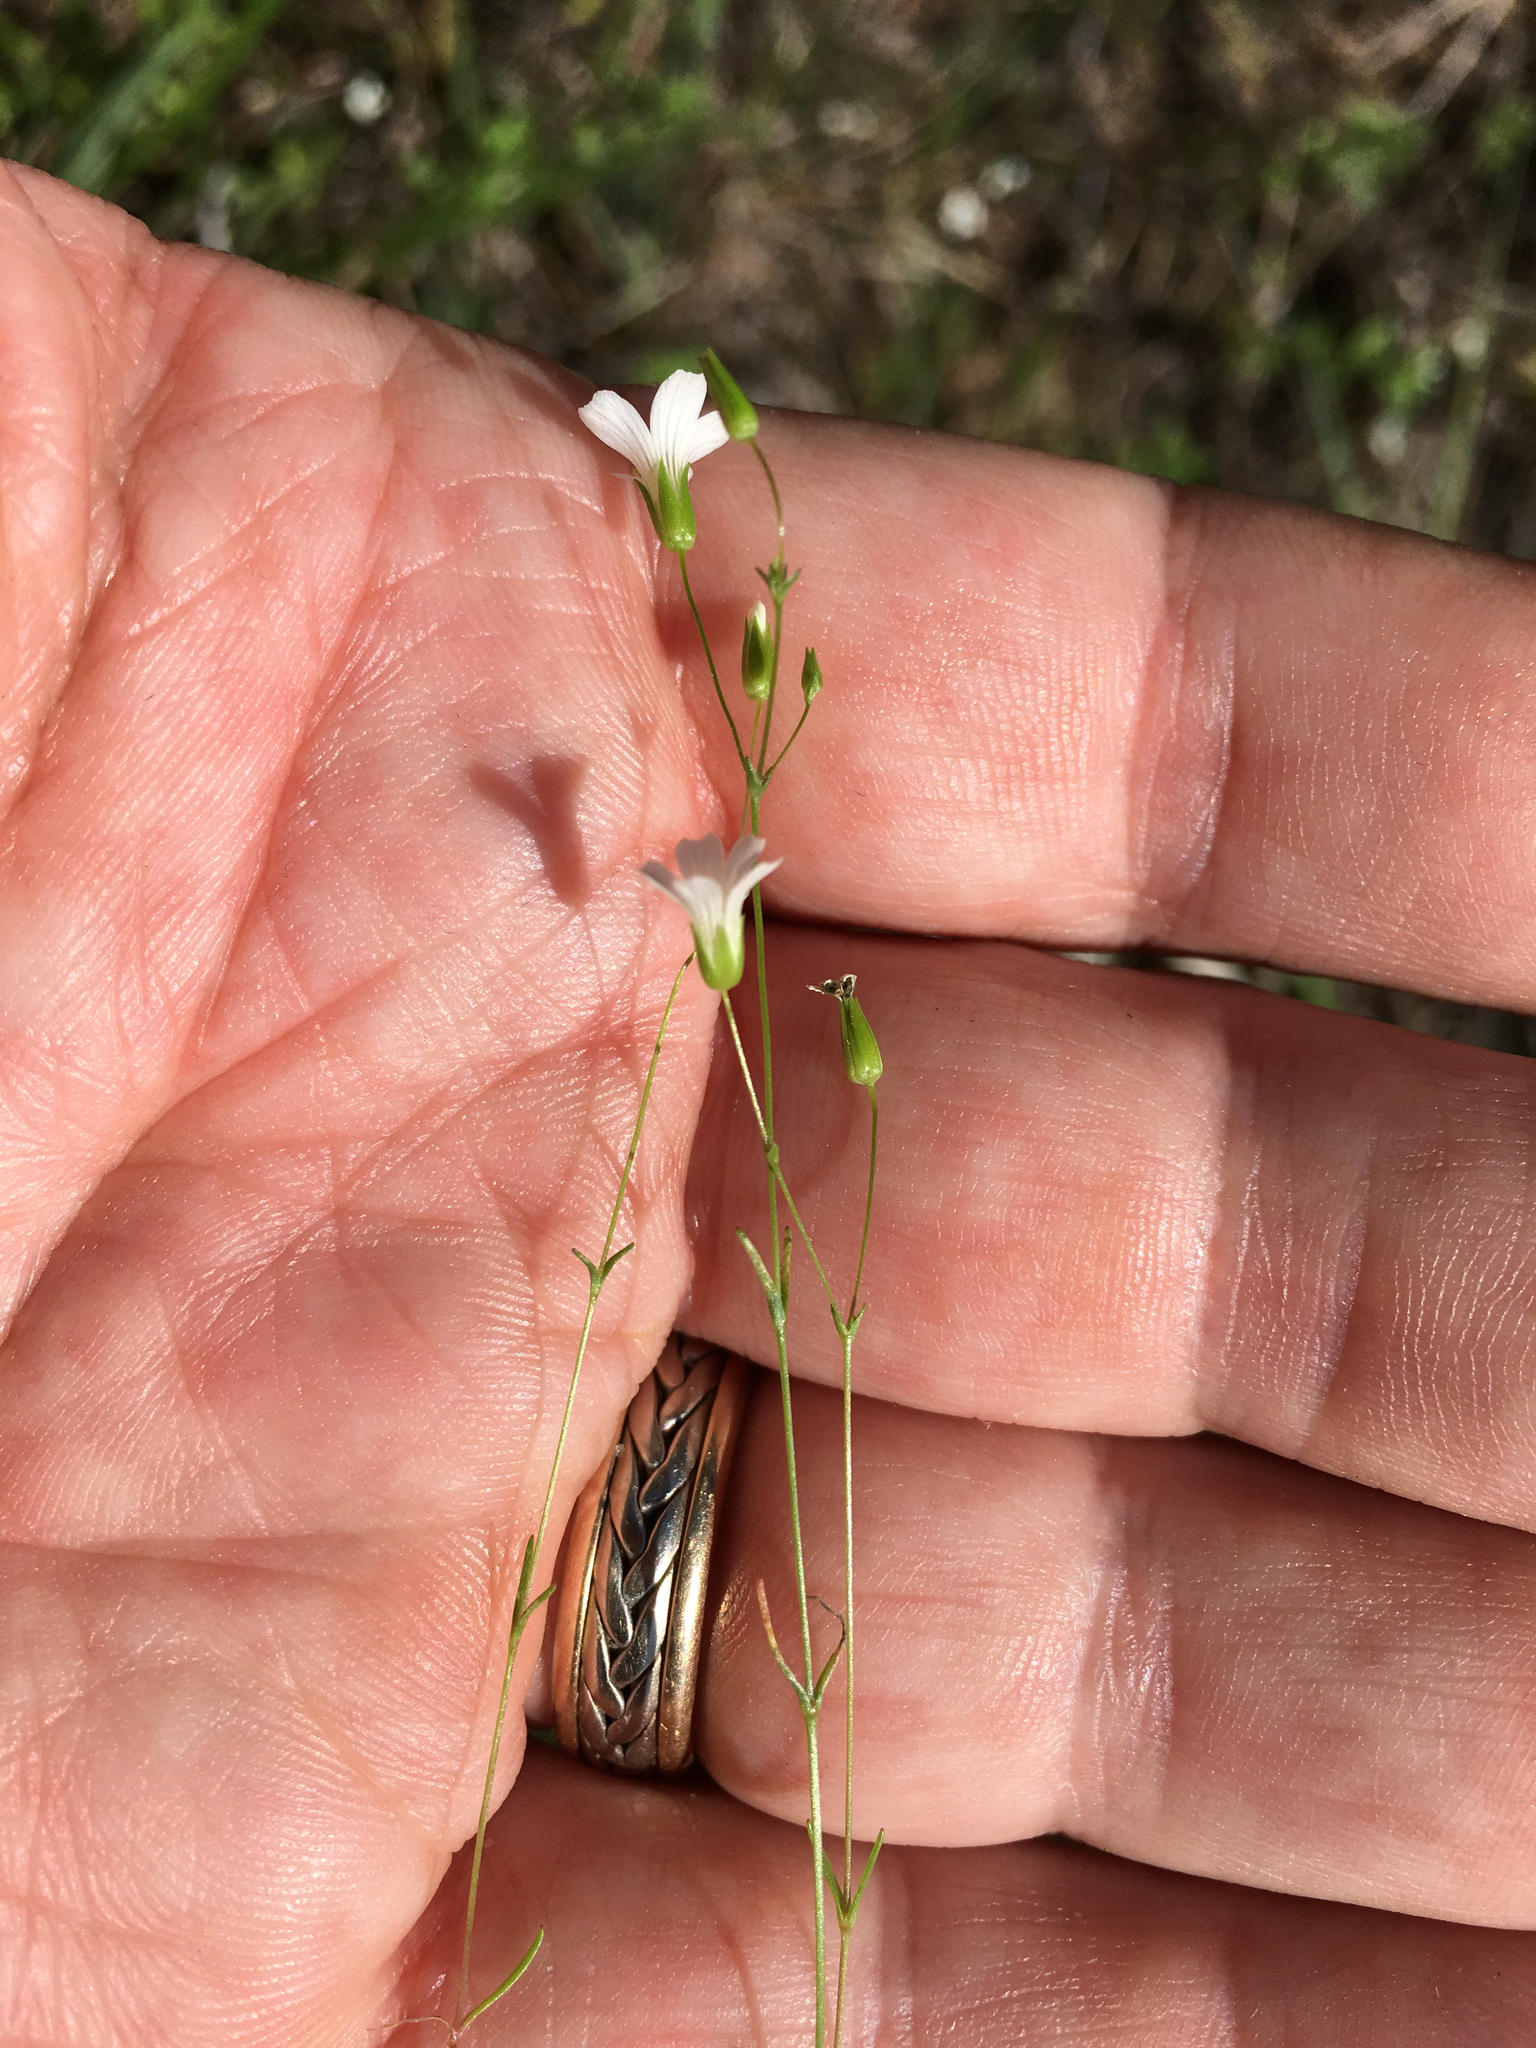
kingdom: Plantae
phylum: Tracheophyta
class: Magnoliopsida
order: Caryophyllales
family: Caryophyllaceae
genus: Mononeuria
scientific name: Mononeuria patula
